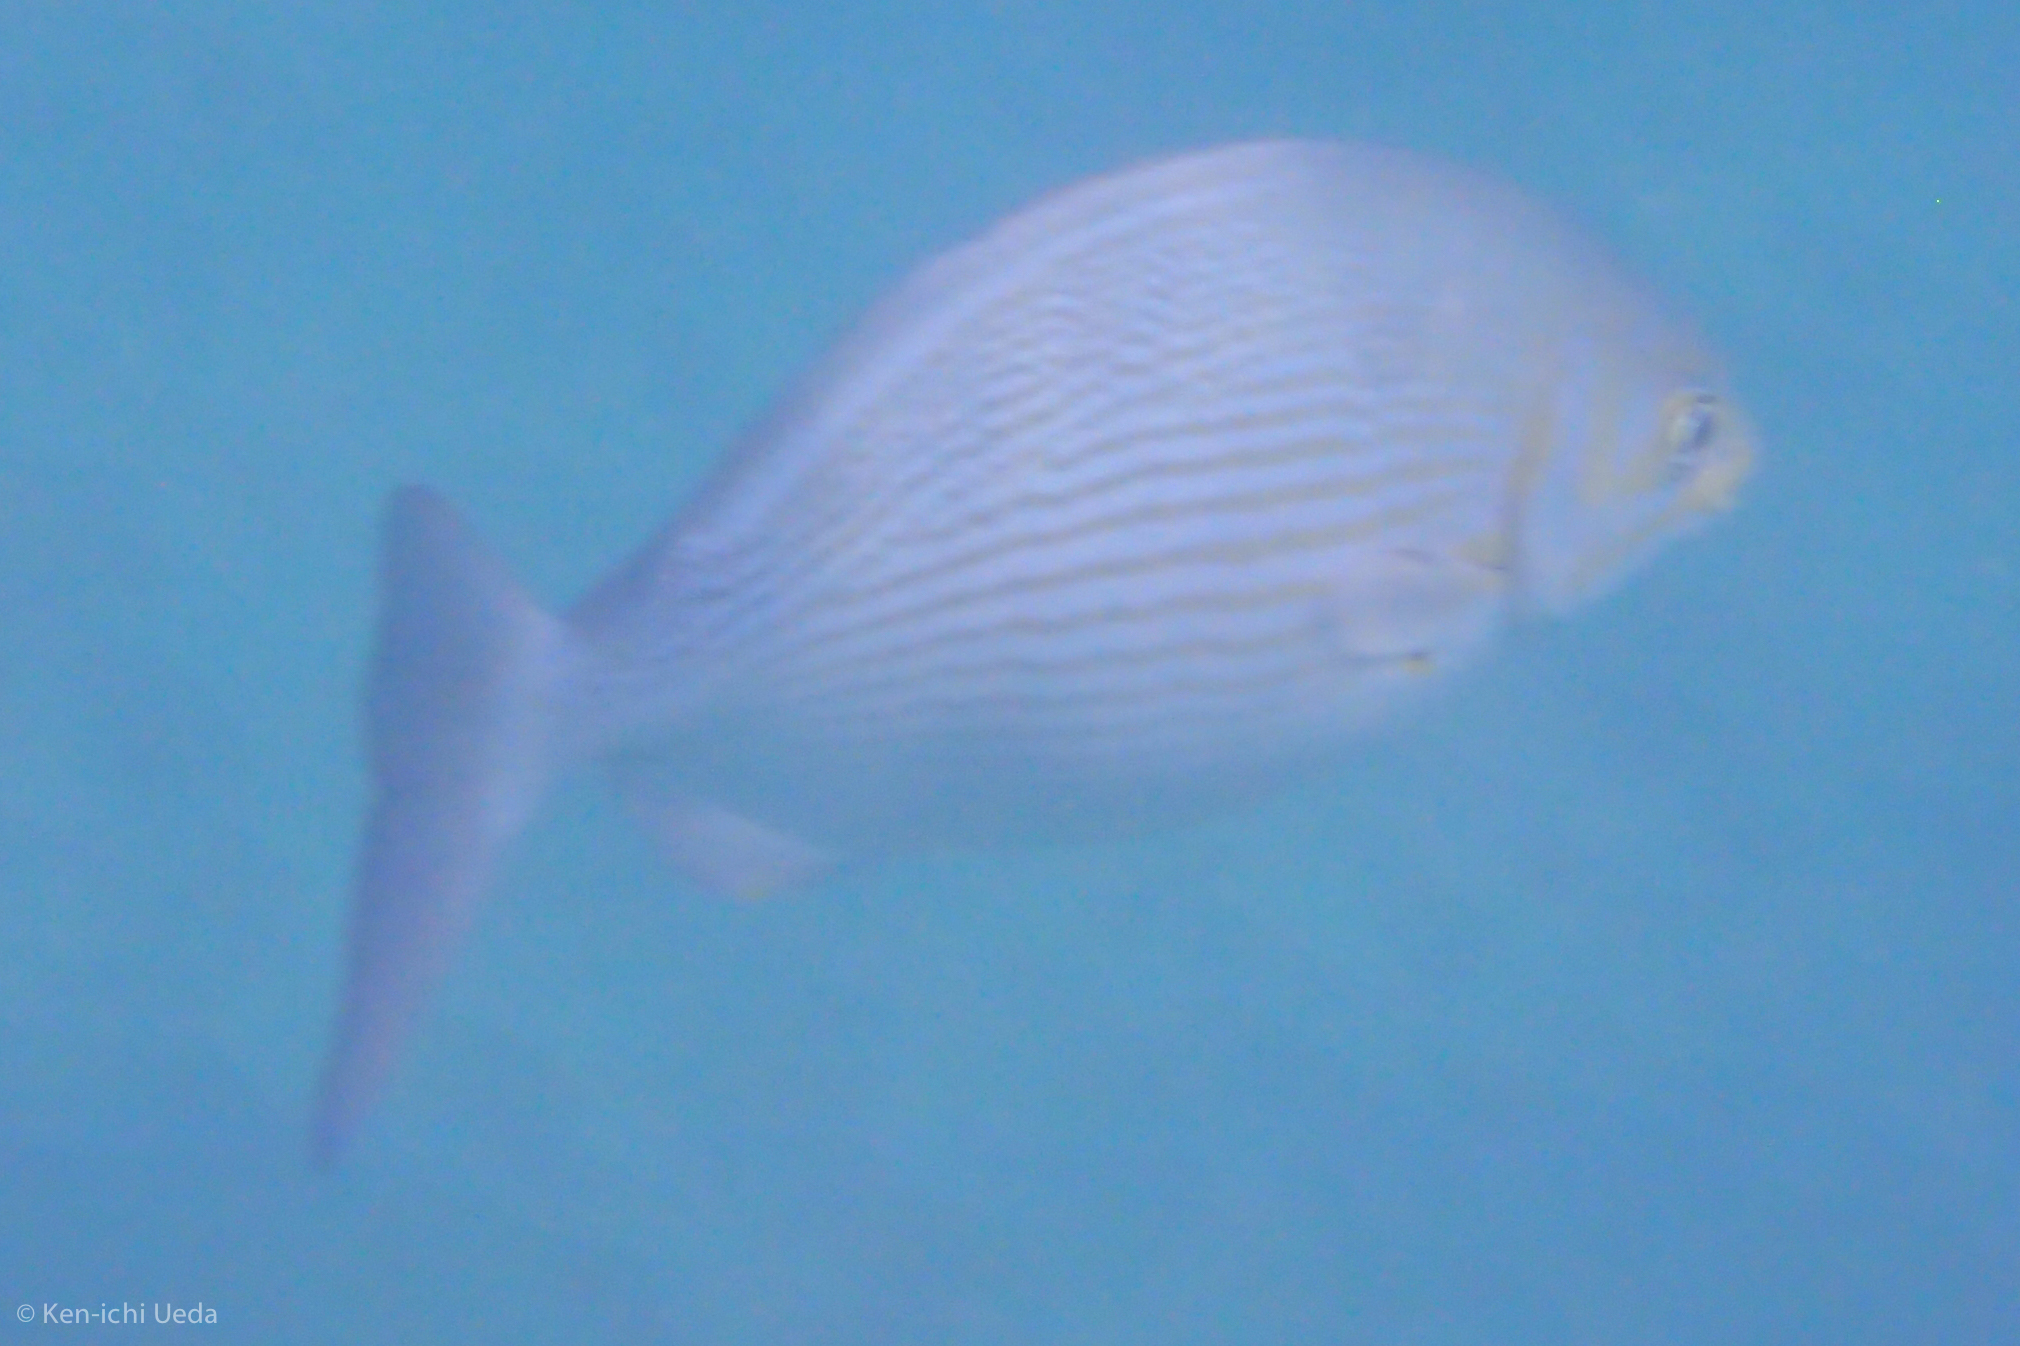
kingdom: Animalia
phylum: Chordata
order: Perciformes
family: Kyphosidae
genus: Kyphosus
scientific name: Kyphosus vaigiensis
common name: Brassy chub
